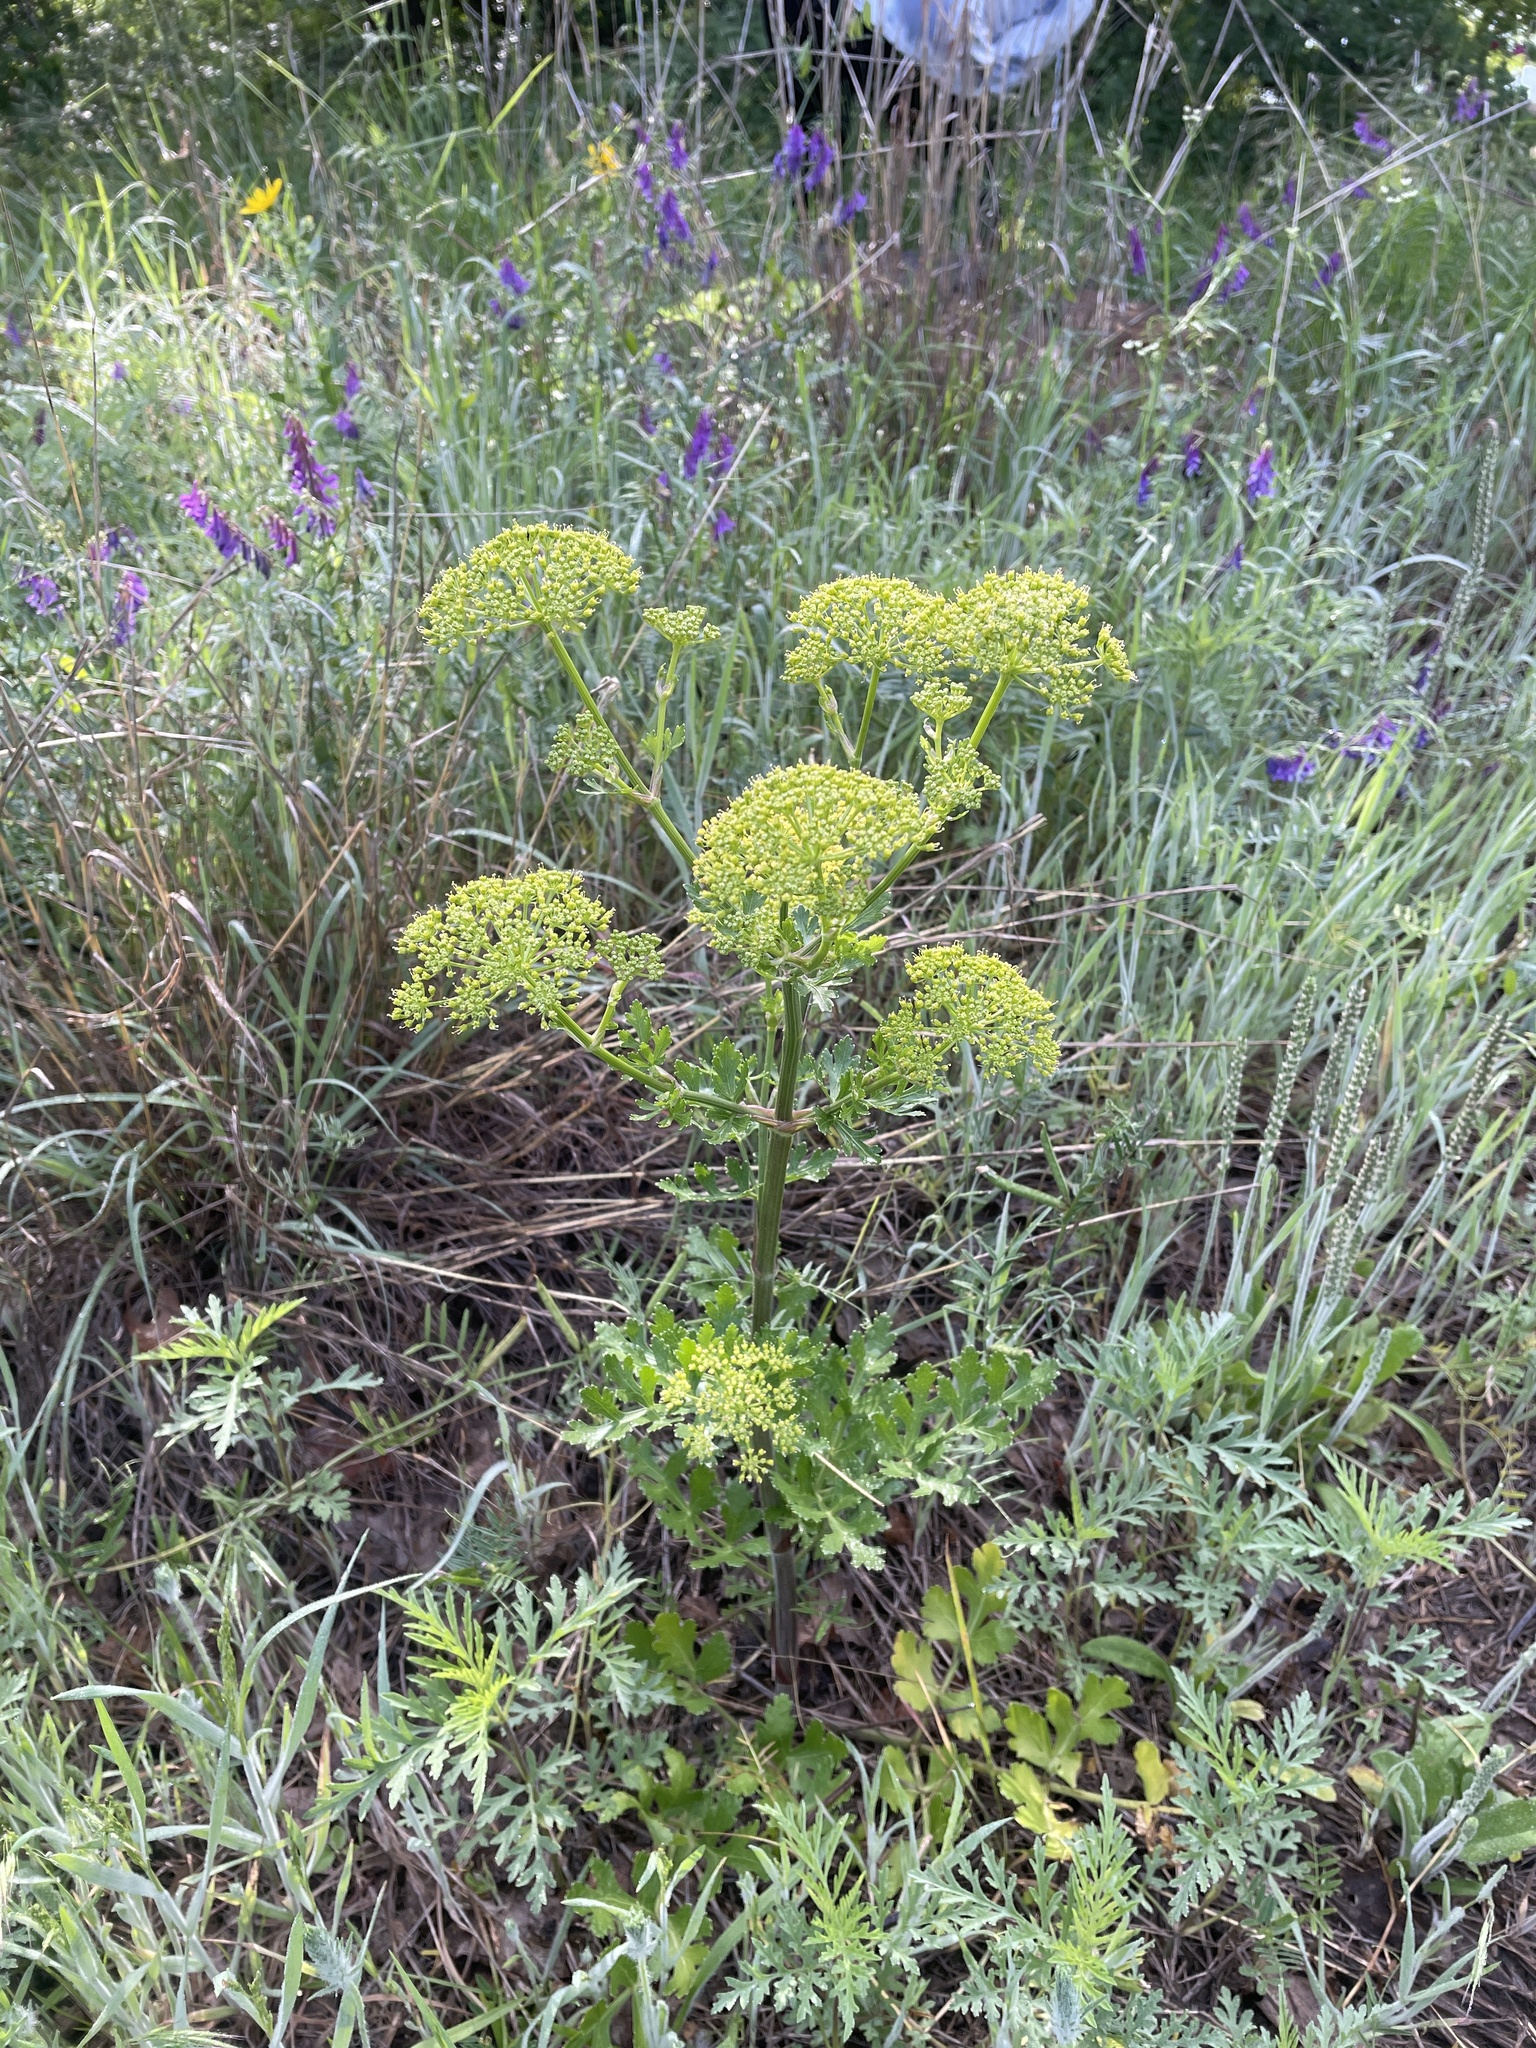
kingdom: Plantae
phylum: Tracheophyta
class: Magnoliopsida
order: Apiales
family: Apiaceae
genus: Polytaenia
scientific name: Polytaenia texana
